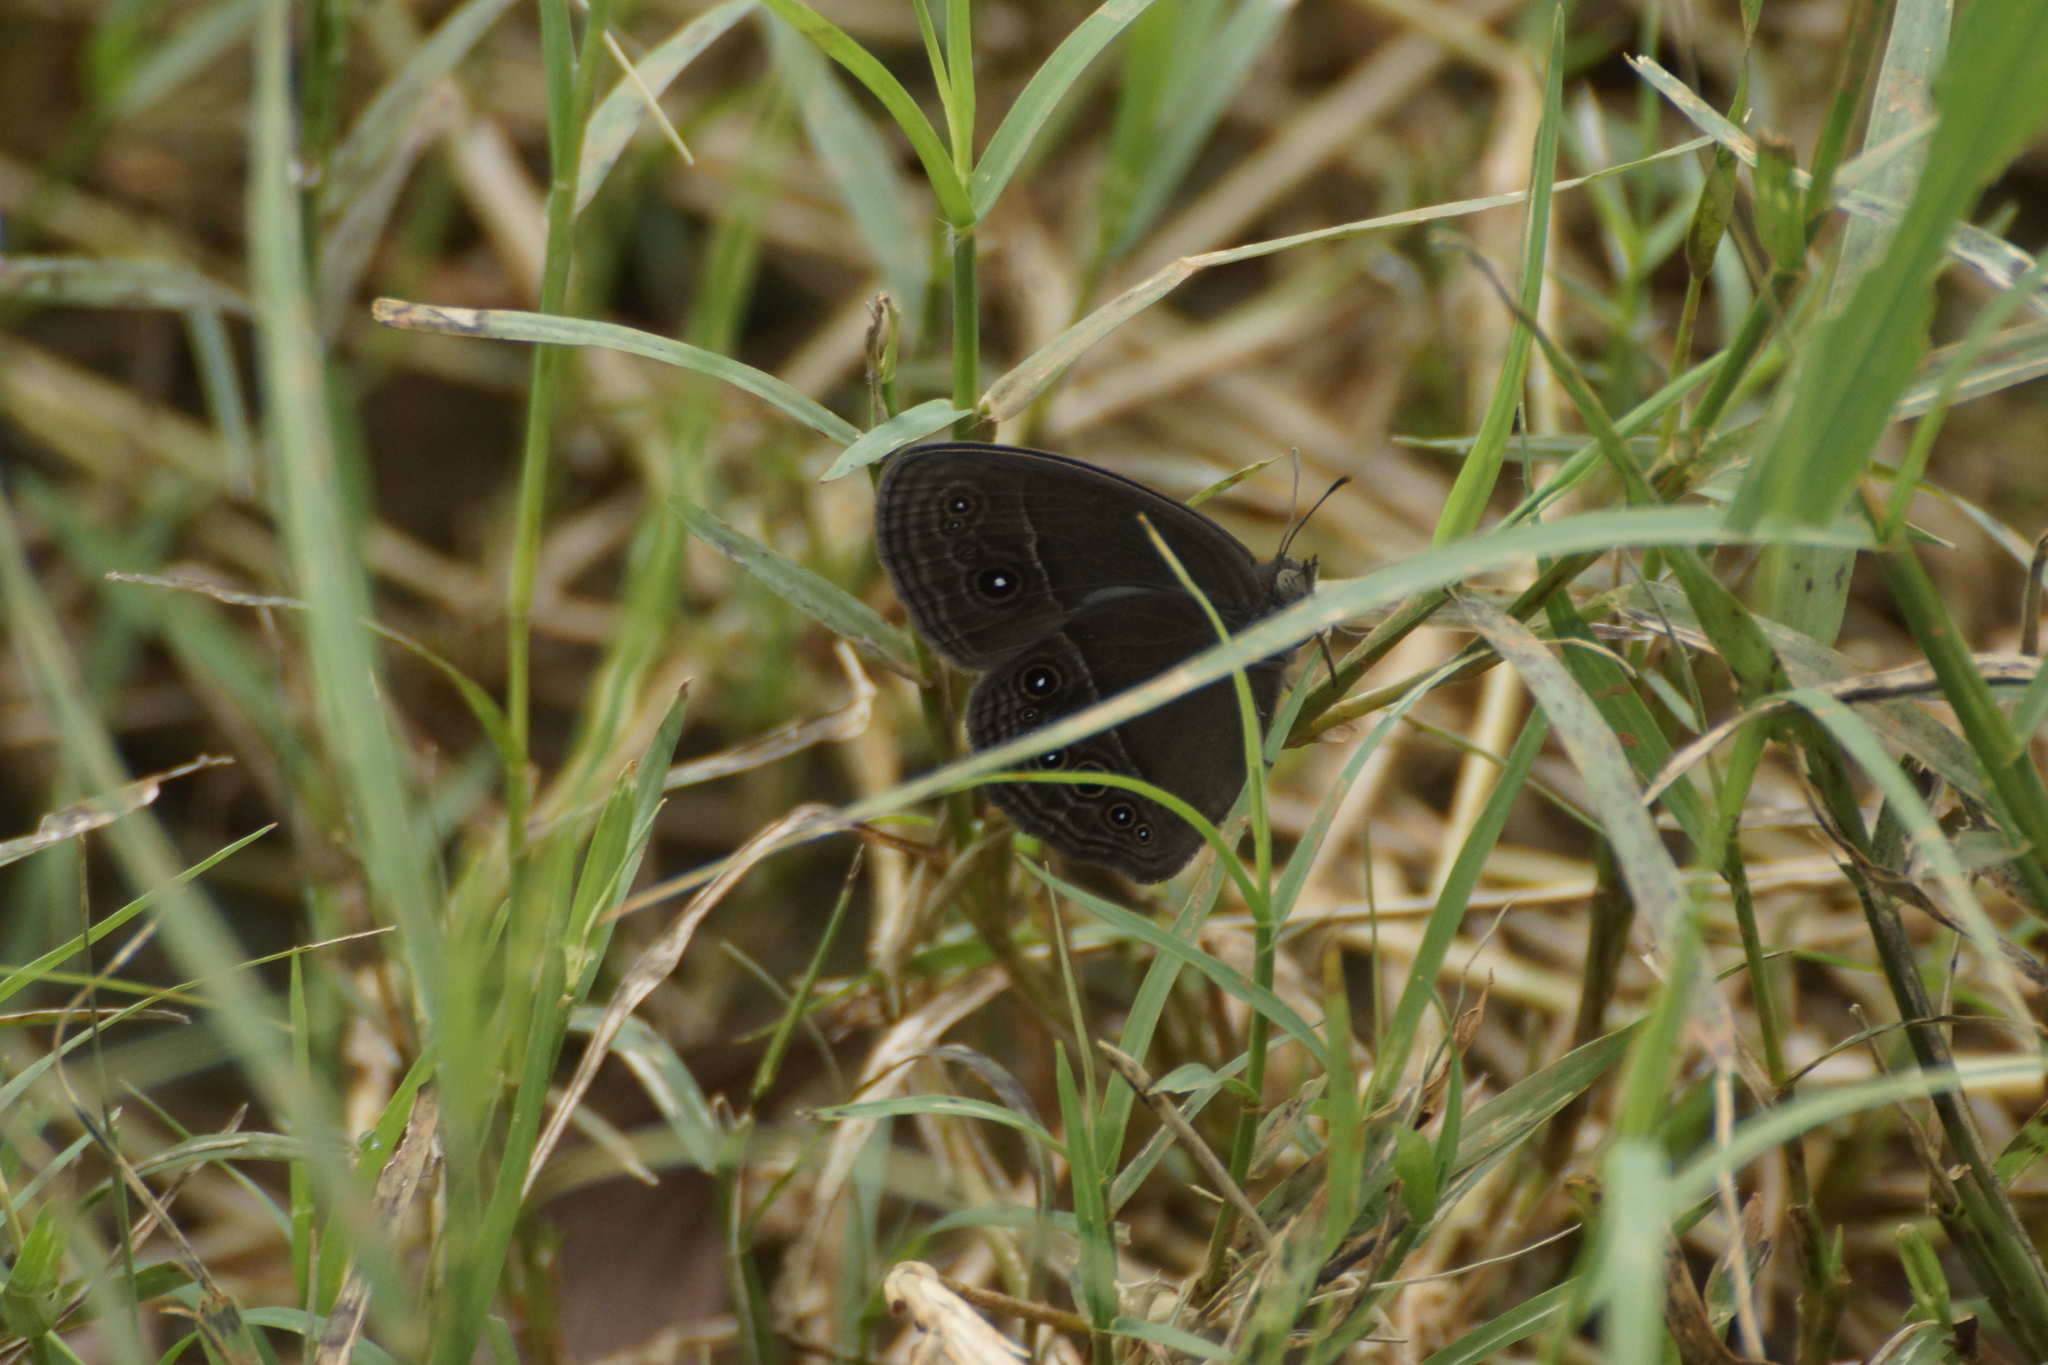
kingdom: Animalia
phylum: Arthropoda
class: Insecta
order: Lepidoptera
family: Nymphalidae
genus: Mycalesis
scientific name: Mycalesis perseus
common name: Dingy bushbrown
